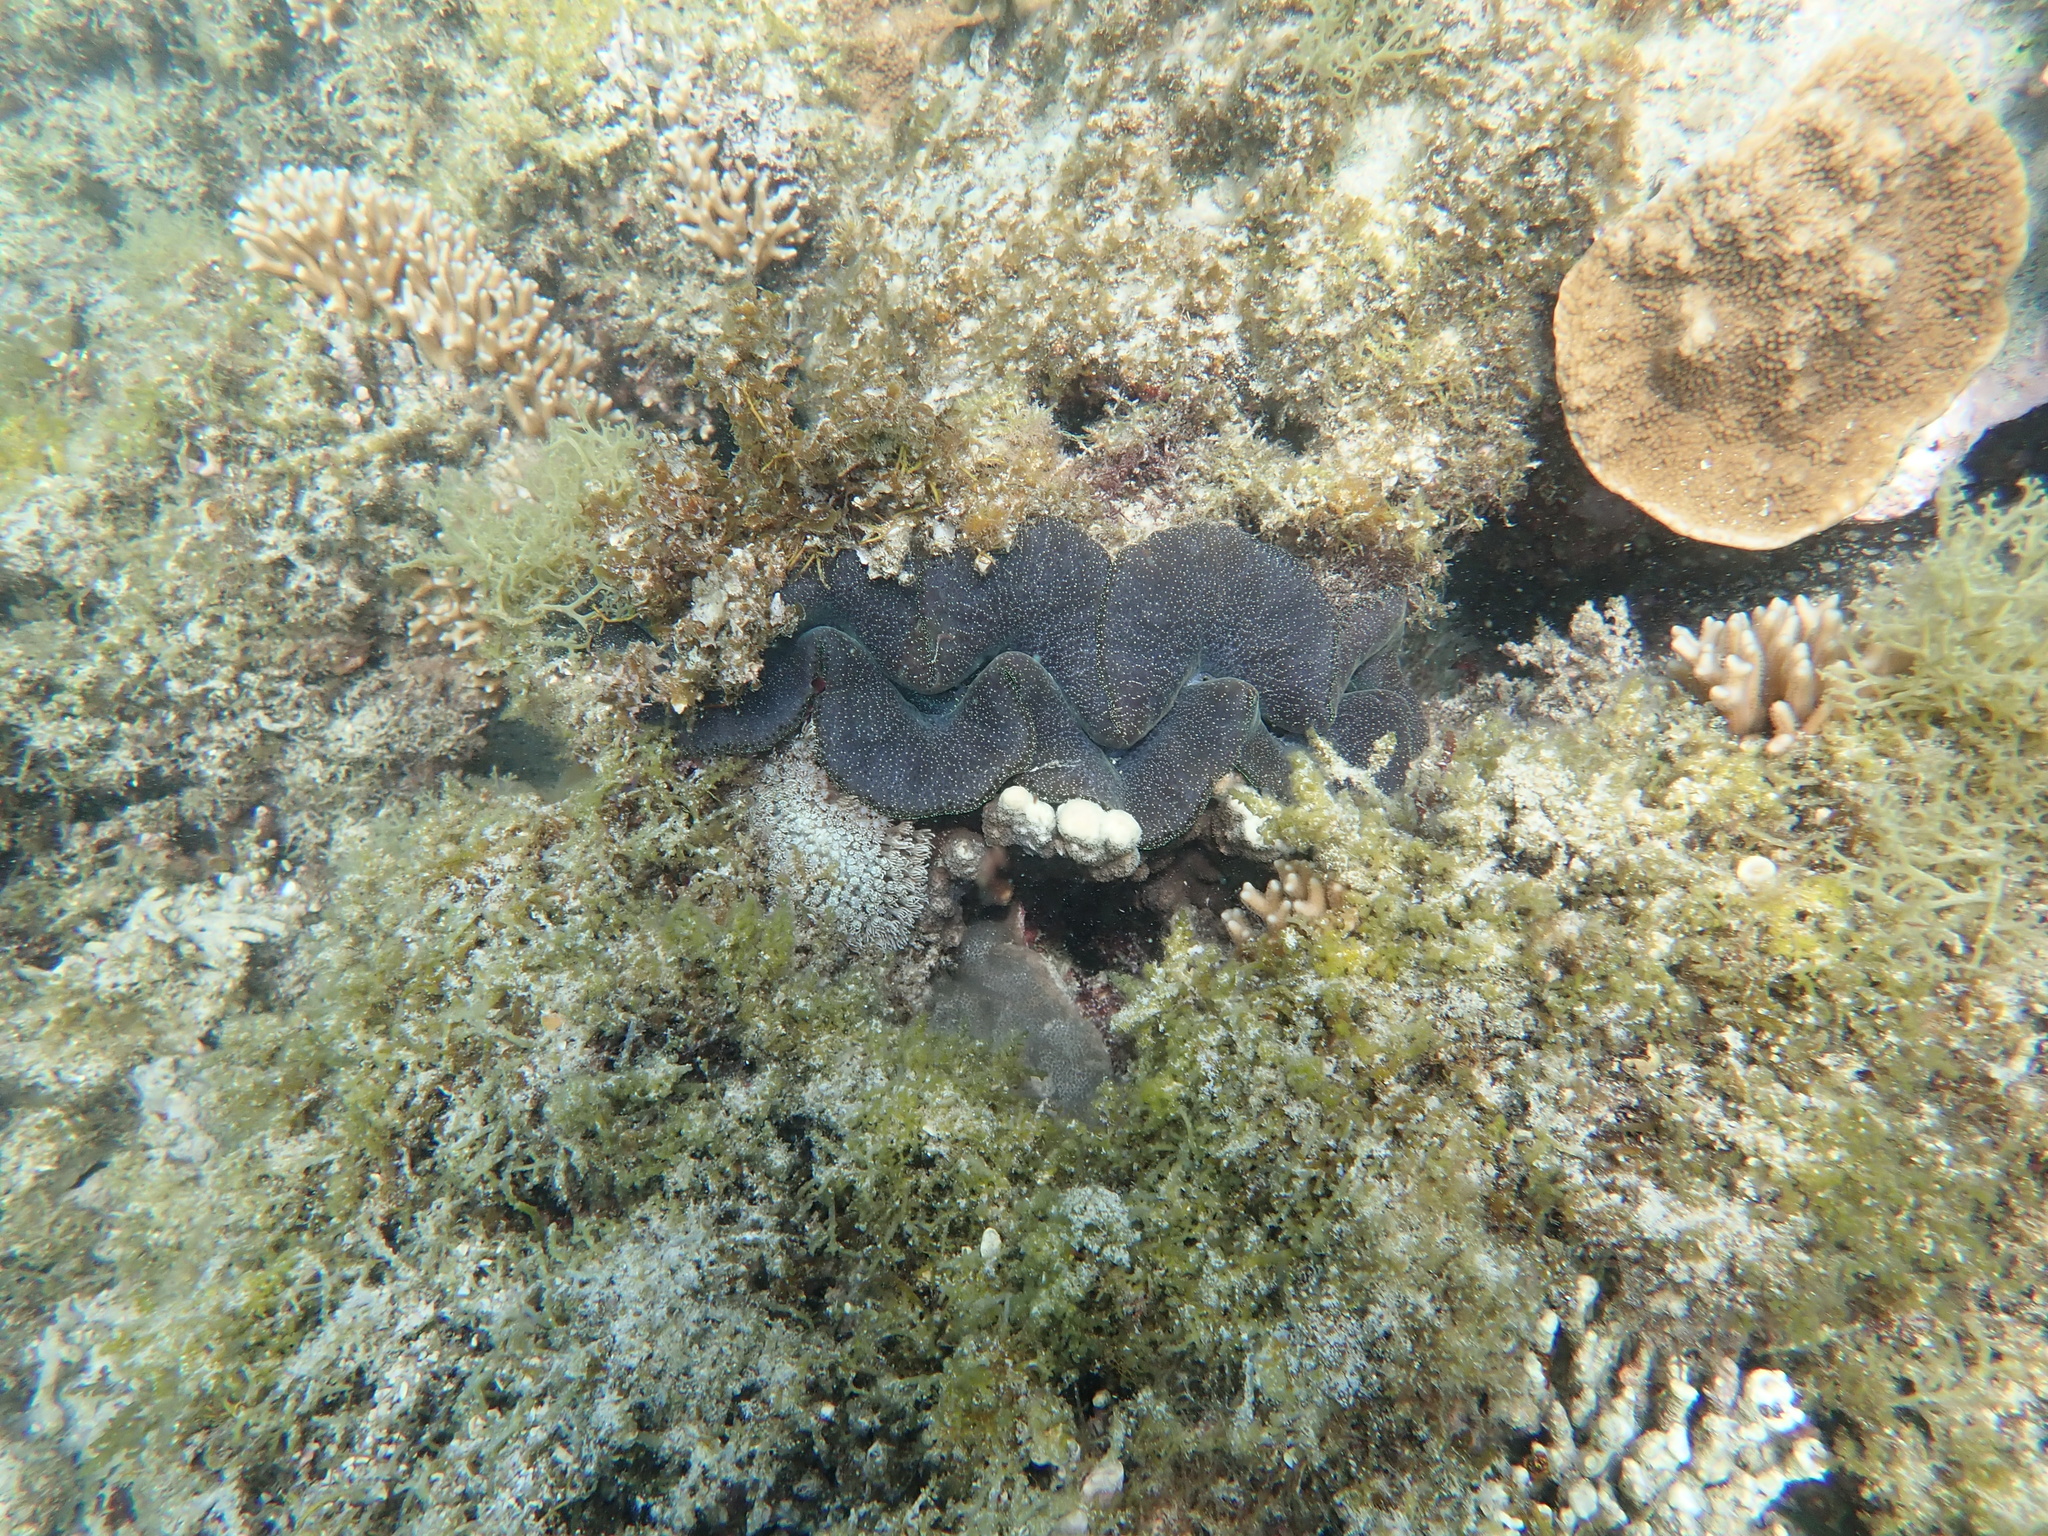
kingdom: Animalia
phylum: Mollusca
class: Bivalvia
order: Cardiida
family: Cardiidae
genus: Tridacna
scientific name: Tridacna maxima
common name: Small giant clam
